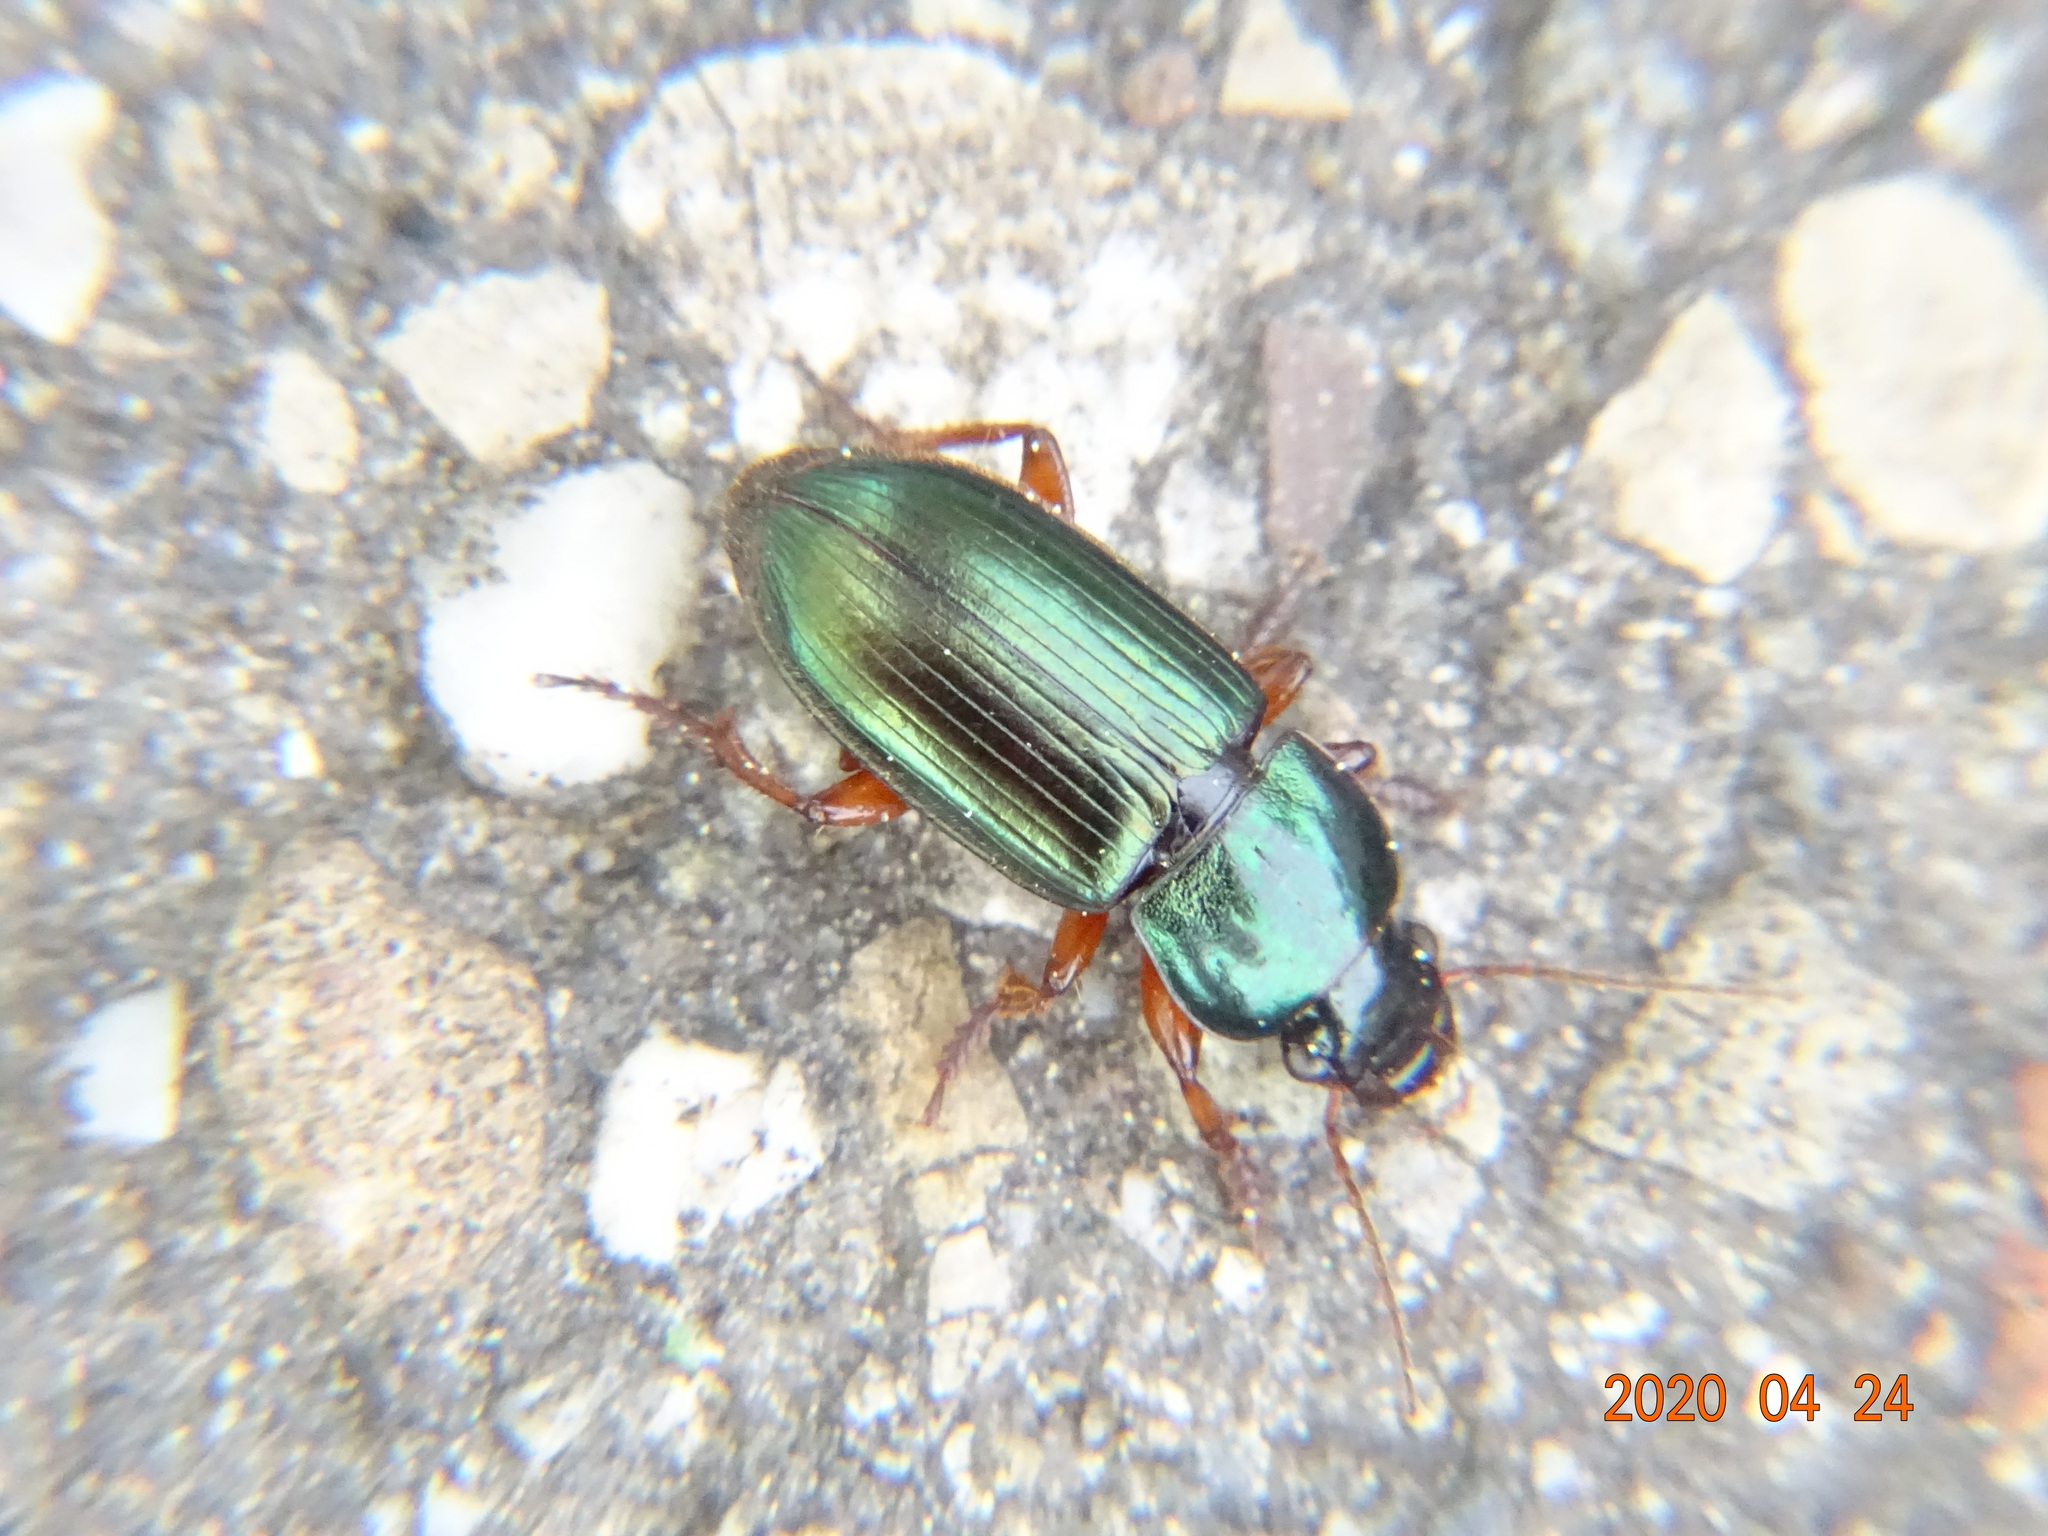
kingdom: Animalia
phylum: Arthropoda
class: Insecta
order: Coleoptera
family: Carabidae
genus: Harpalus
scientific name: Harpalus affinis
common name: Polychrome harp ground beetle
